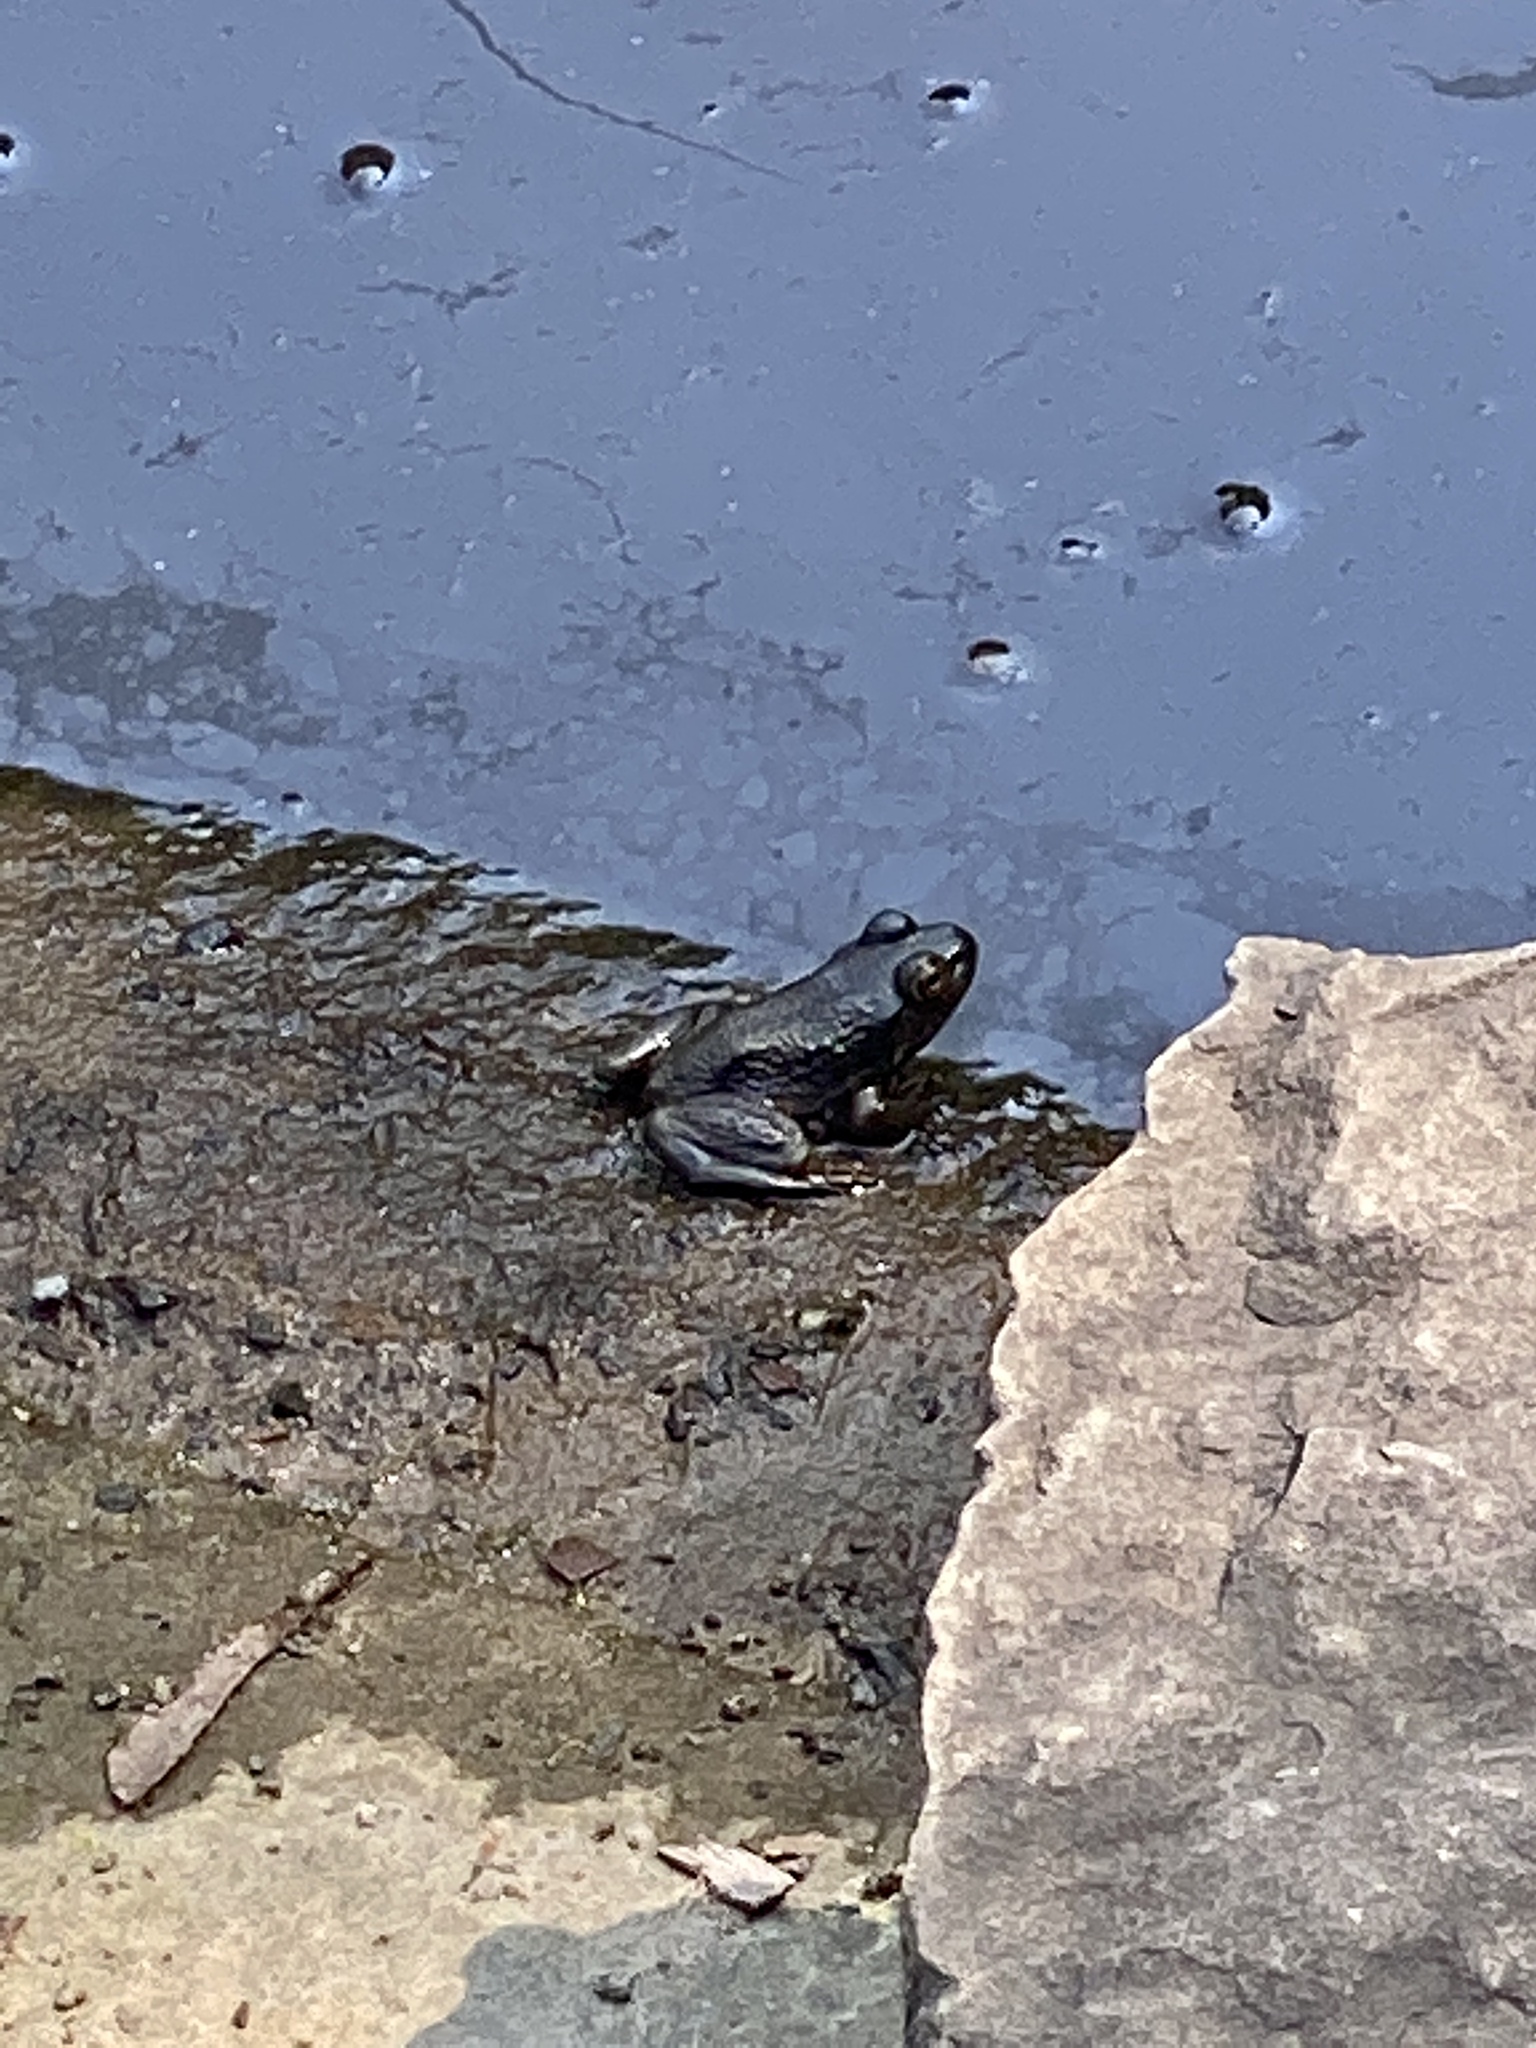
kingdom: Animalia
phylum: Chordata
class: Amphibia
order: Anura
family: Ranidae
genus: Lithobates
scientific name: Lithobates catesbeianus
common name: American bullfrog
